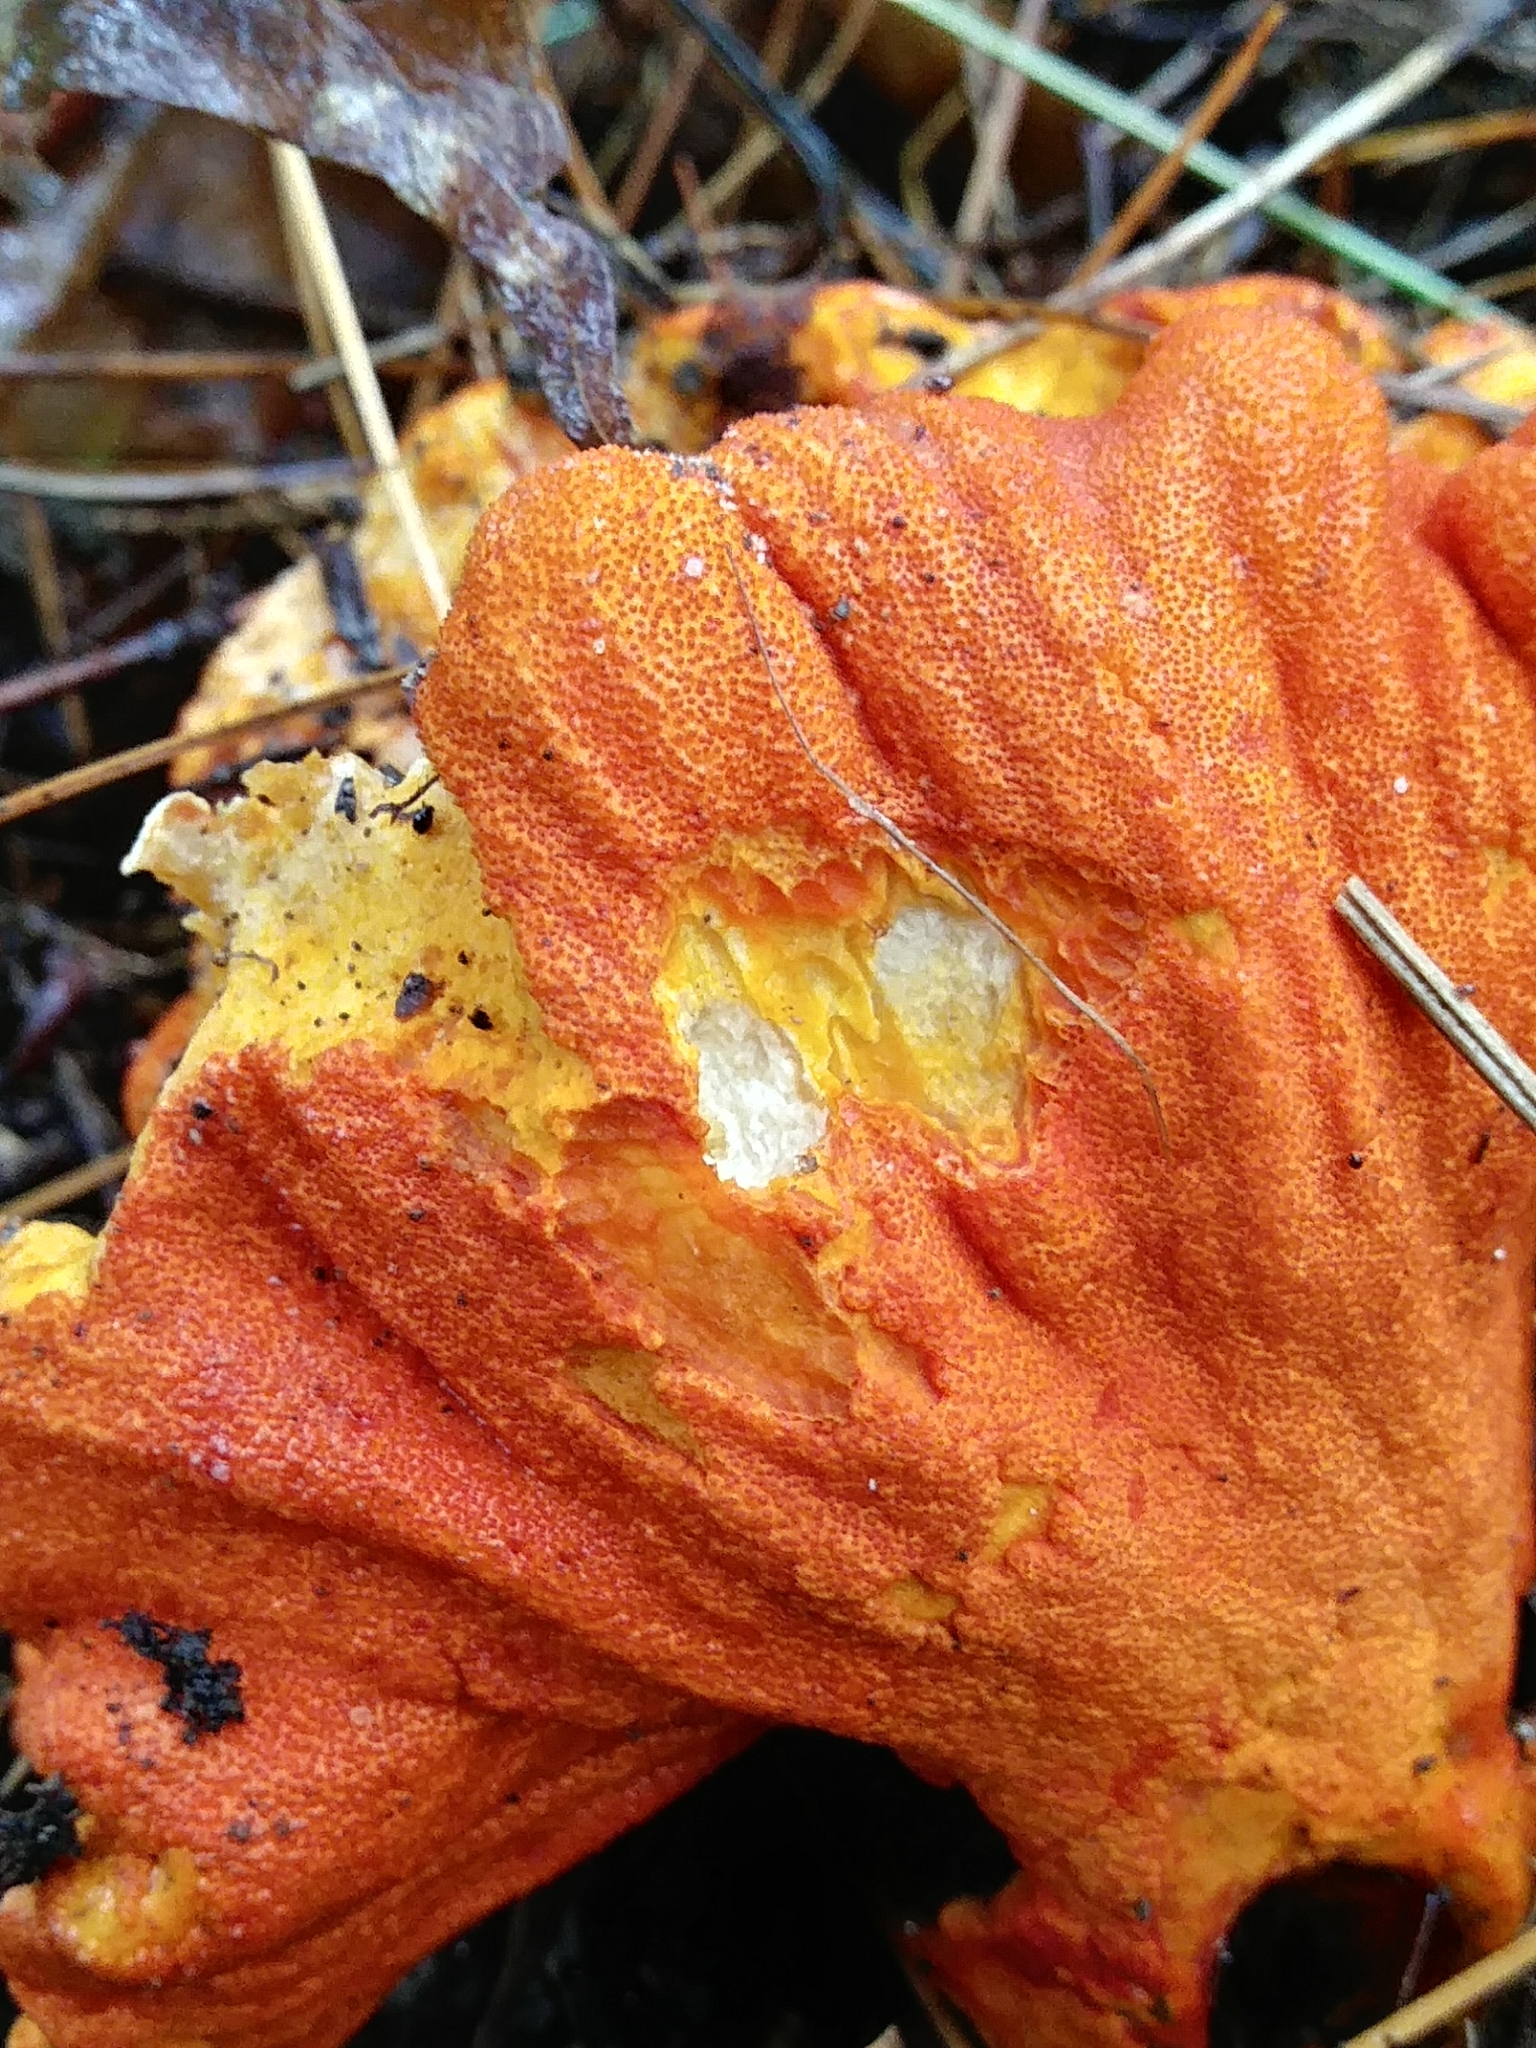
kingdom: Fungi
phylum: Ascomycota
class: Sordariomycetes
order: Hypocreales
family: Hypocreaceae
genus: Hypomyces
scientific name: Hypomyces lactifluorum
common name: Lobster mushroom
